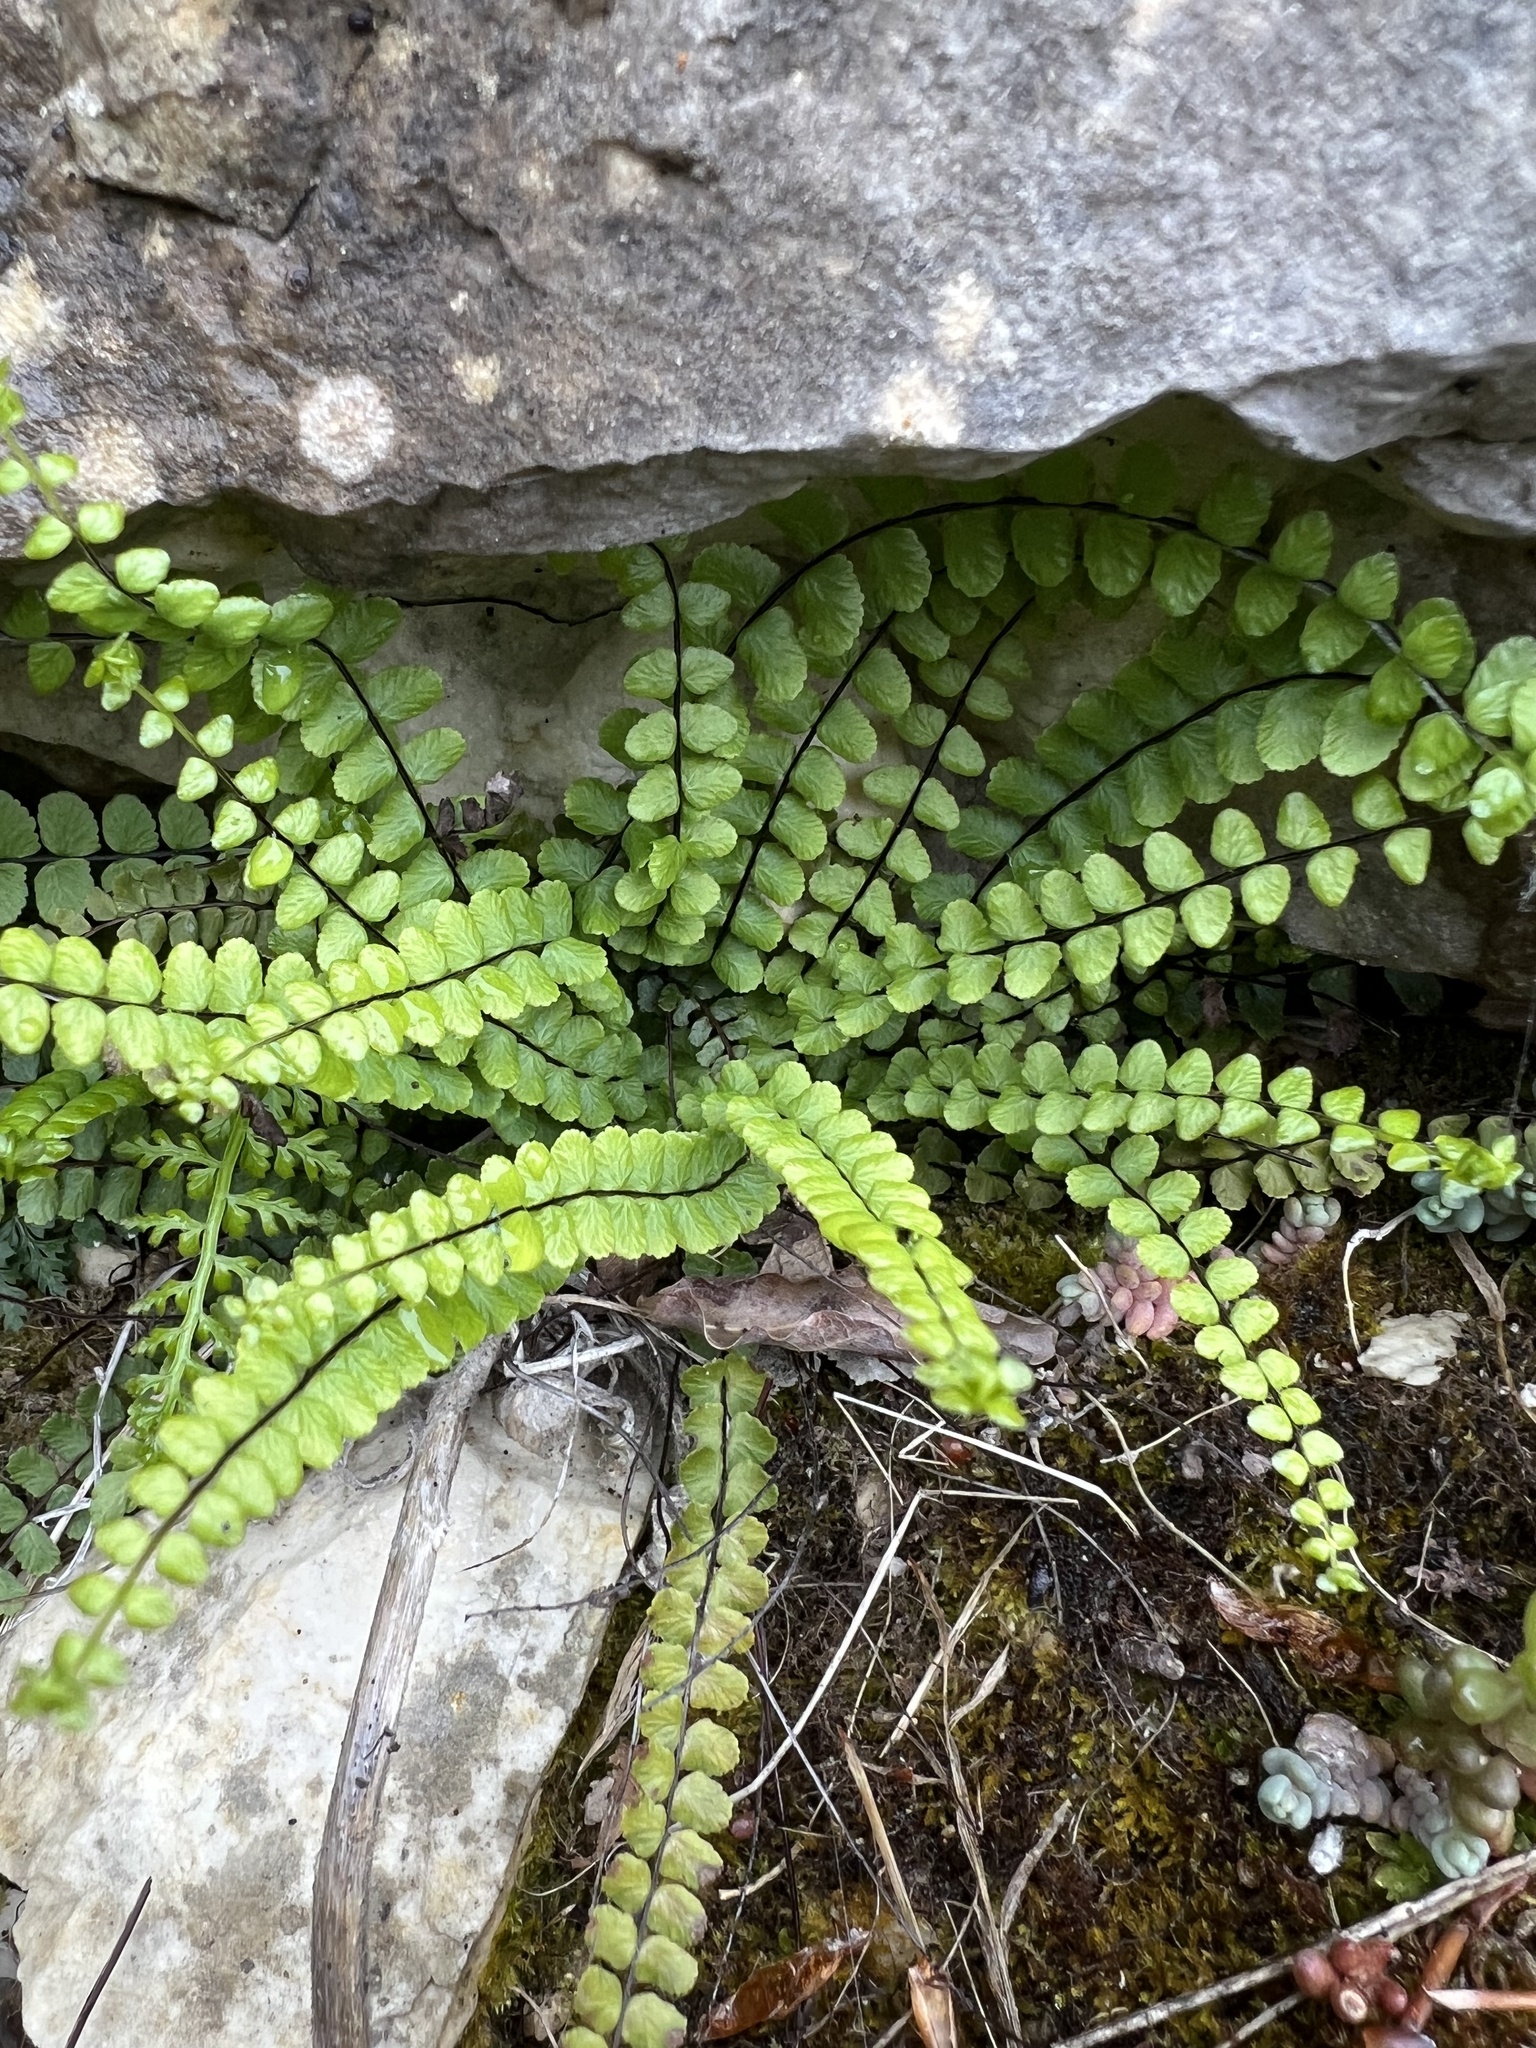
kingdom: Plantae
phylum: Tracheophyta
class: Polypodiopsida
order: Polypodiales
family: Aspleniaceae
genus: Asplenium
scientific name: Asplenium trichomanes
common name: Maidenhair spleenwort
